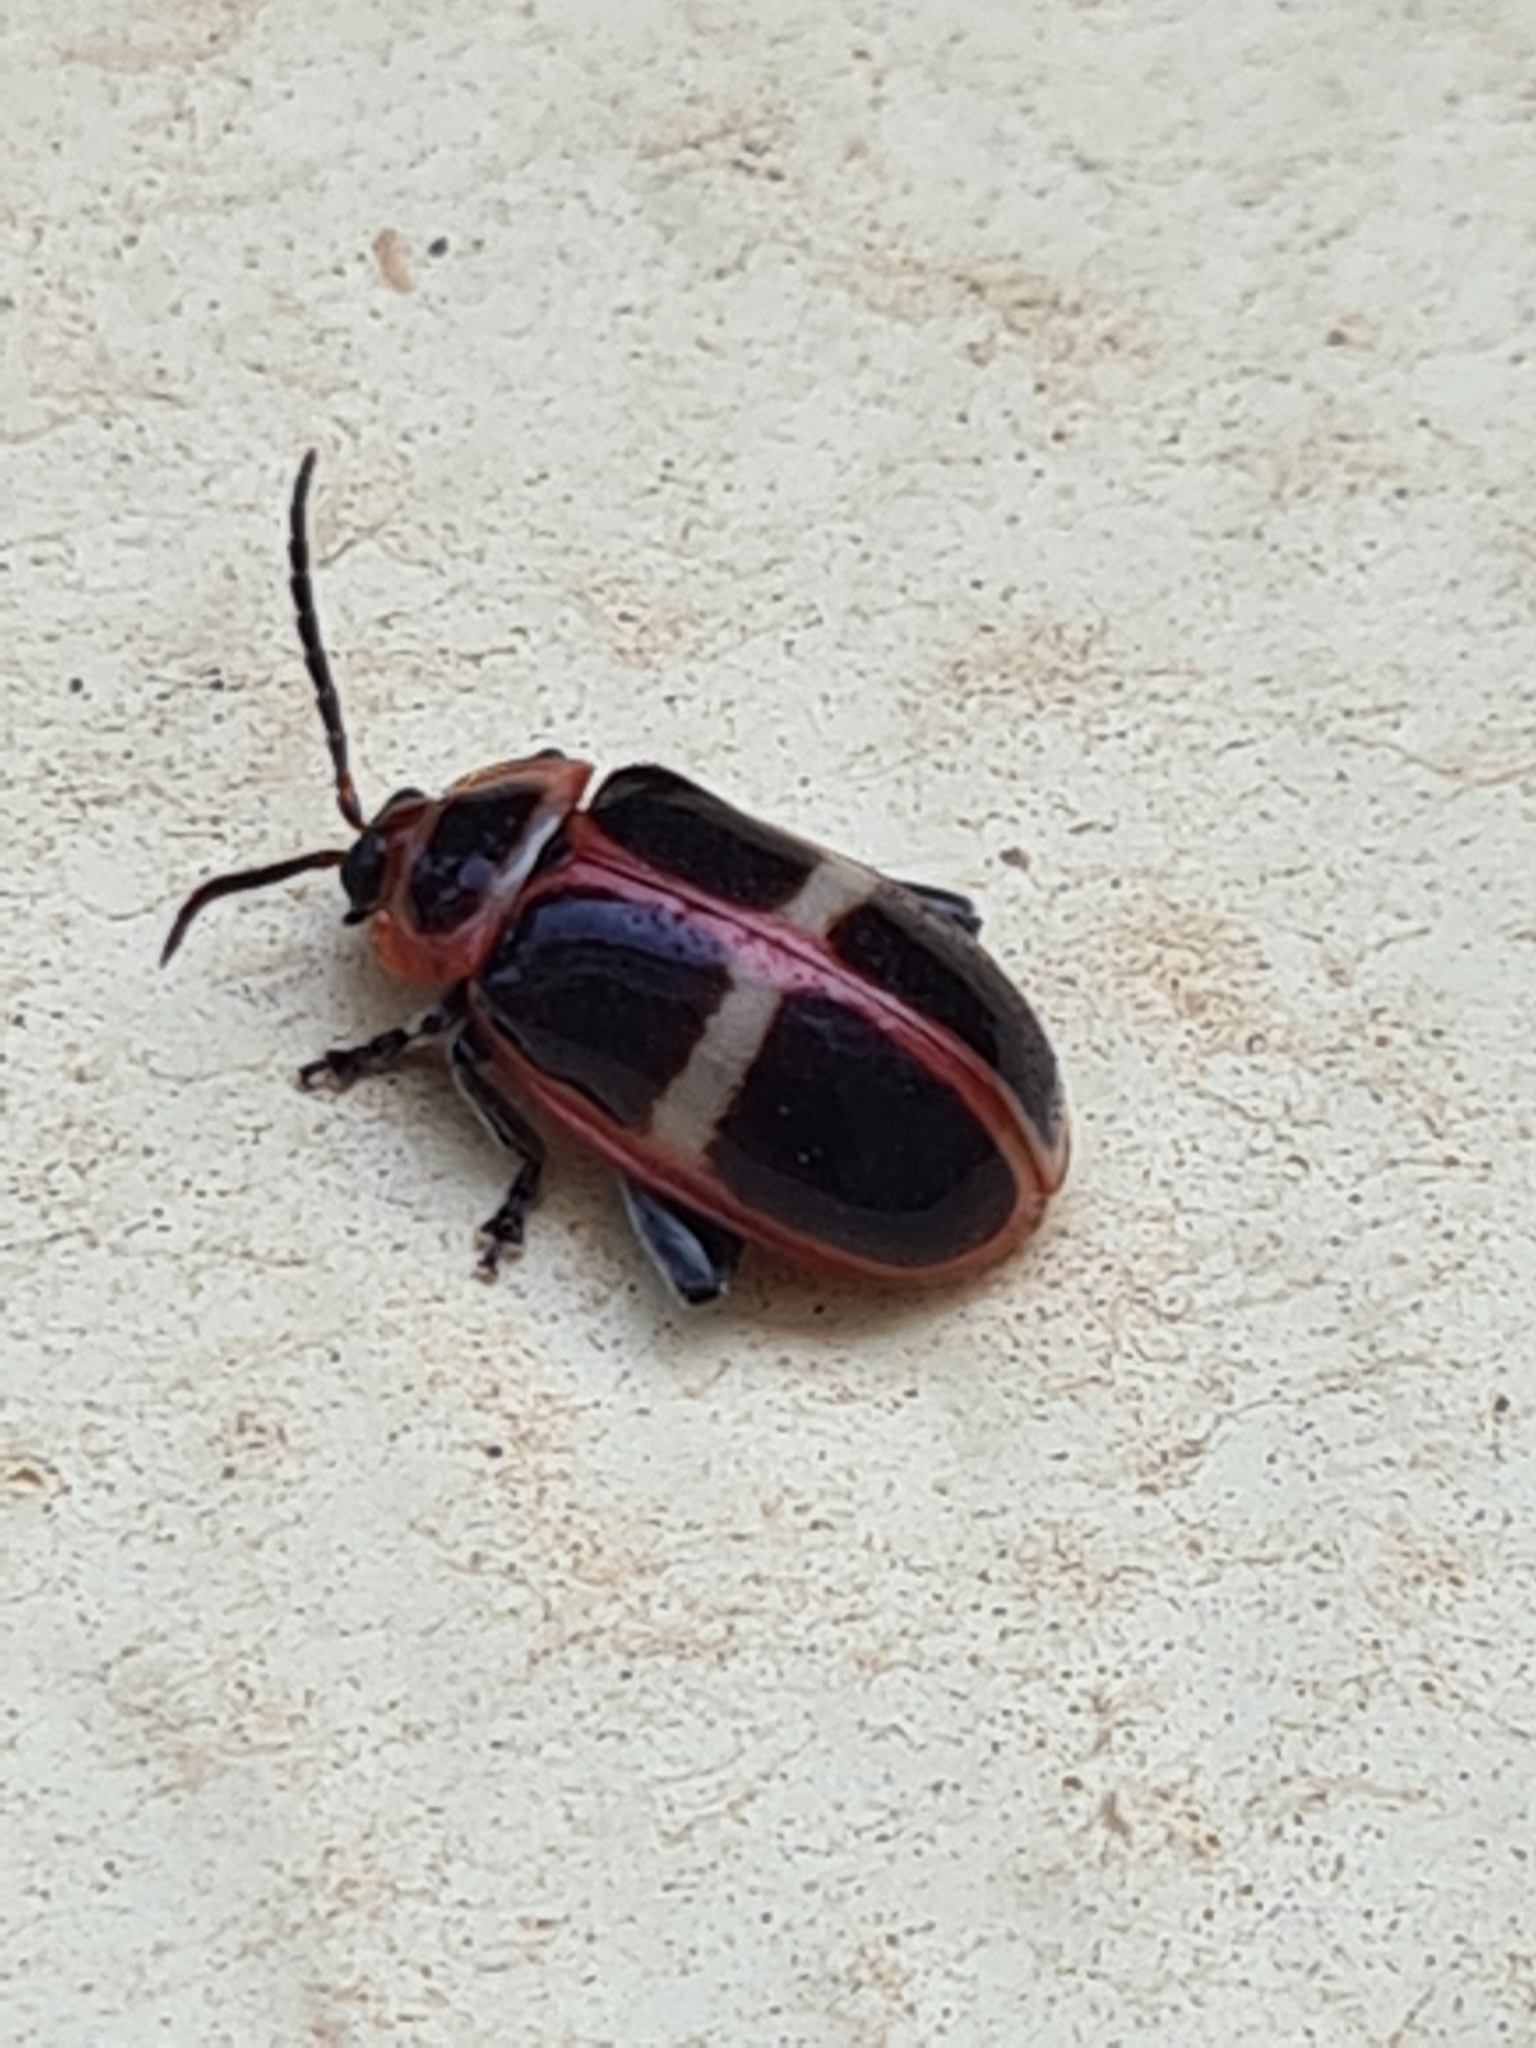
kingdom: Animalia
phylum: Arthropoda
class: Insecta
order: Coleoptera
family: Chrysomelidae
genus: Asphaera
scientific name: Asphaera
